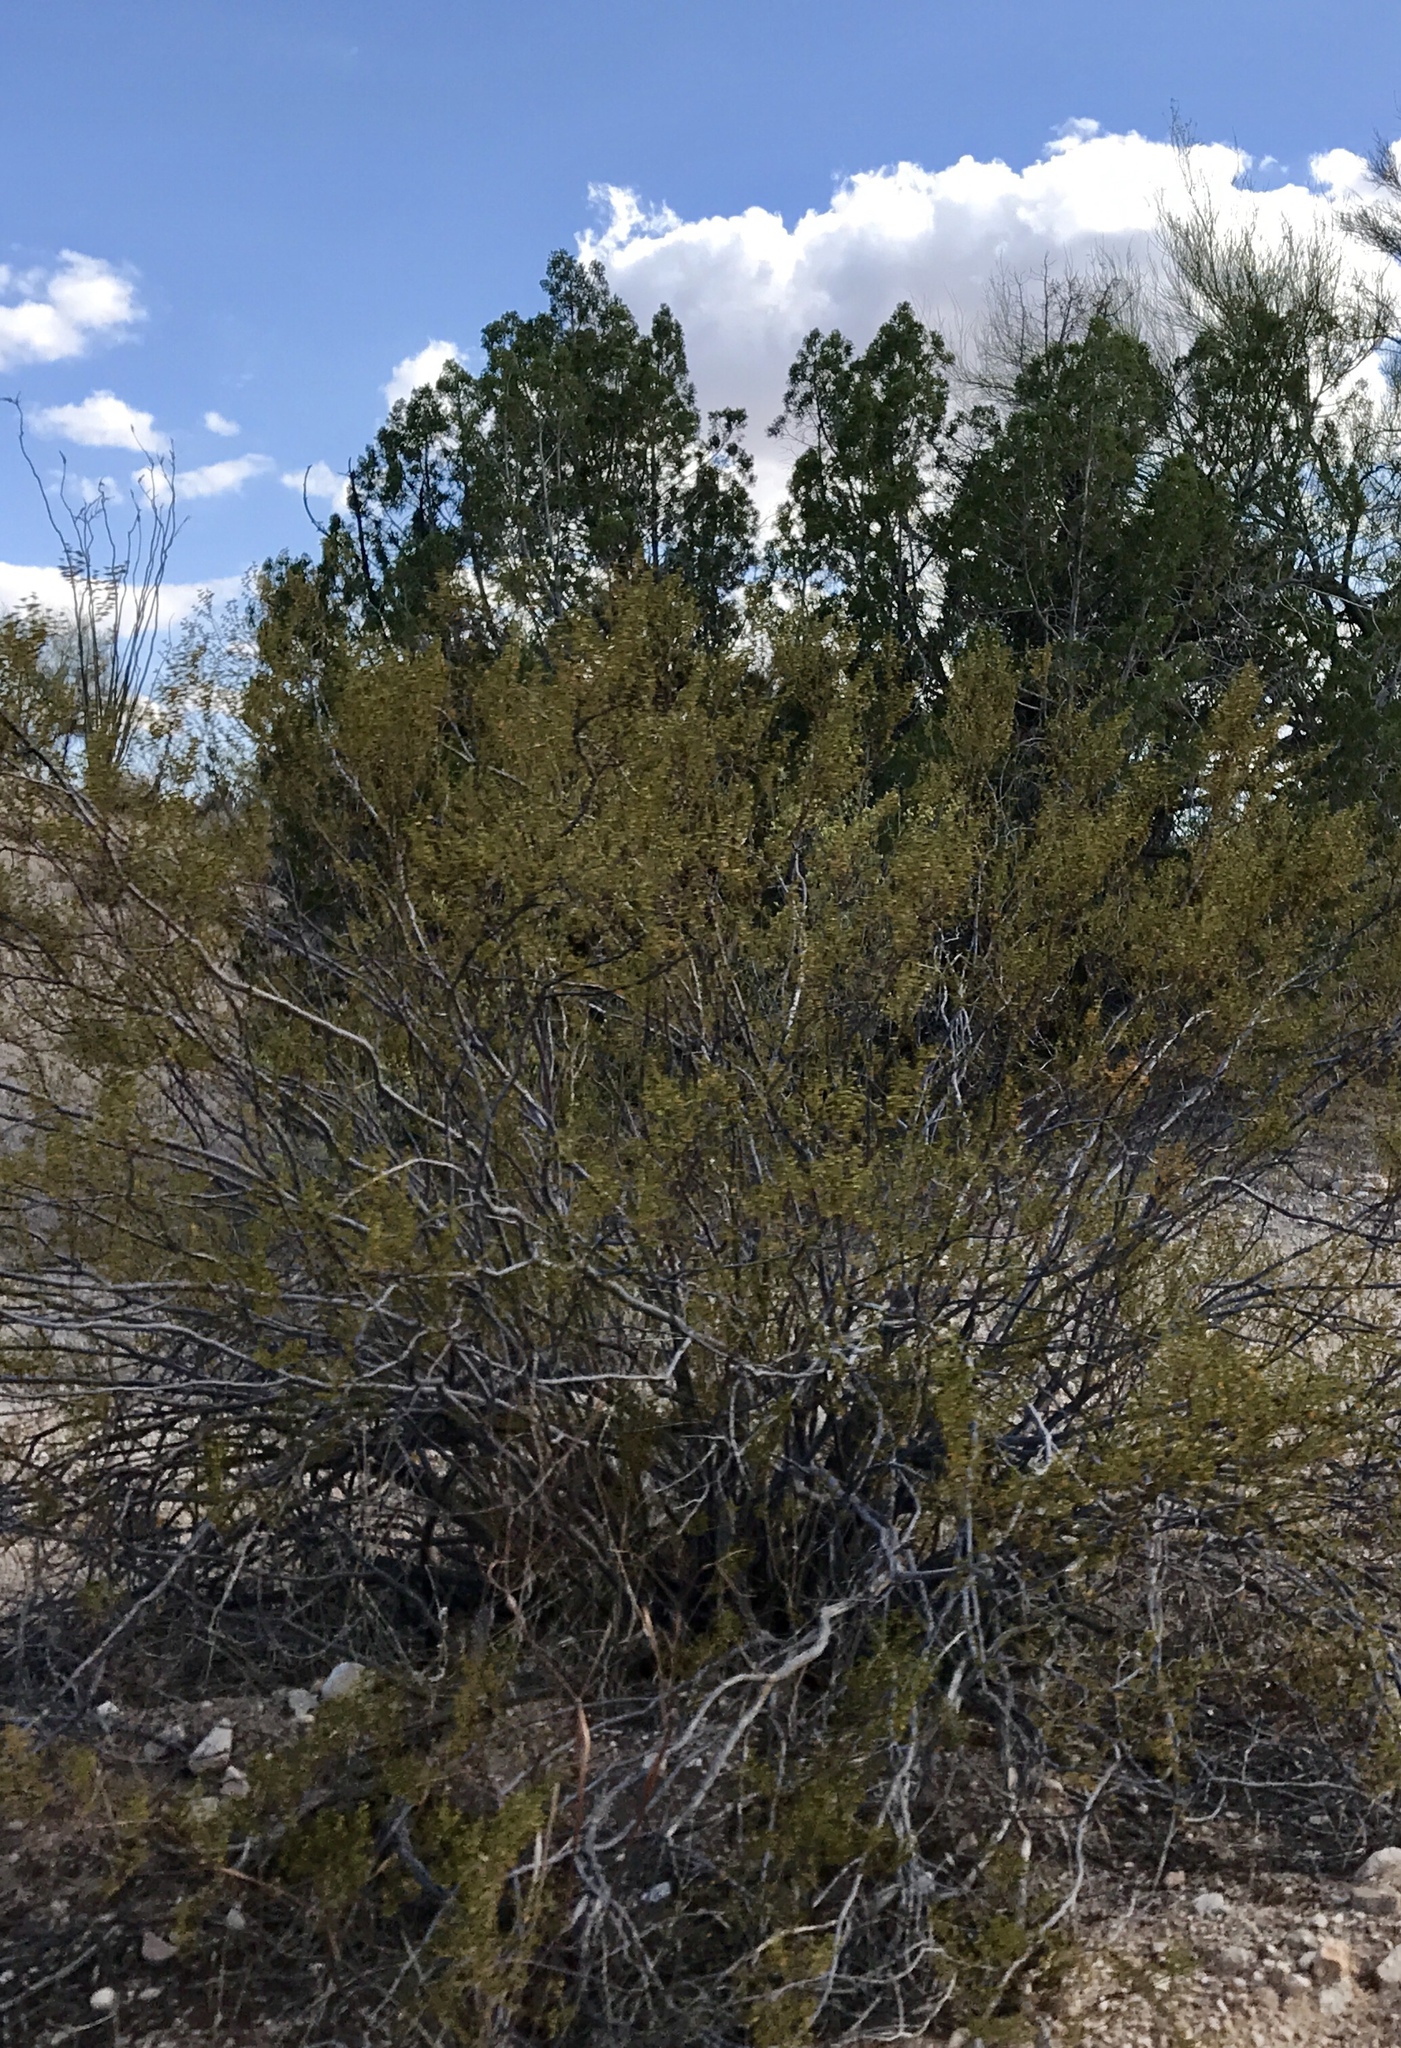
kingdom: Plantae
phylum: Tracheophyta
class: Magnoliopsida
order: Zygophyllales
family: Zygophyllaceae
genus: Larrea
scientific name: Larrea tridentata
